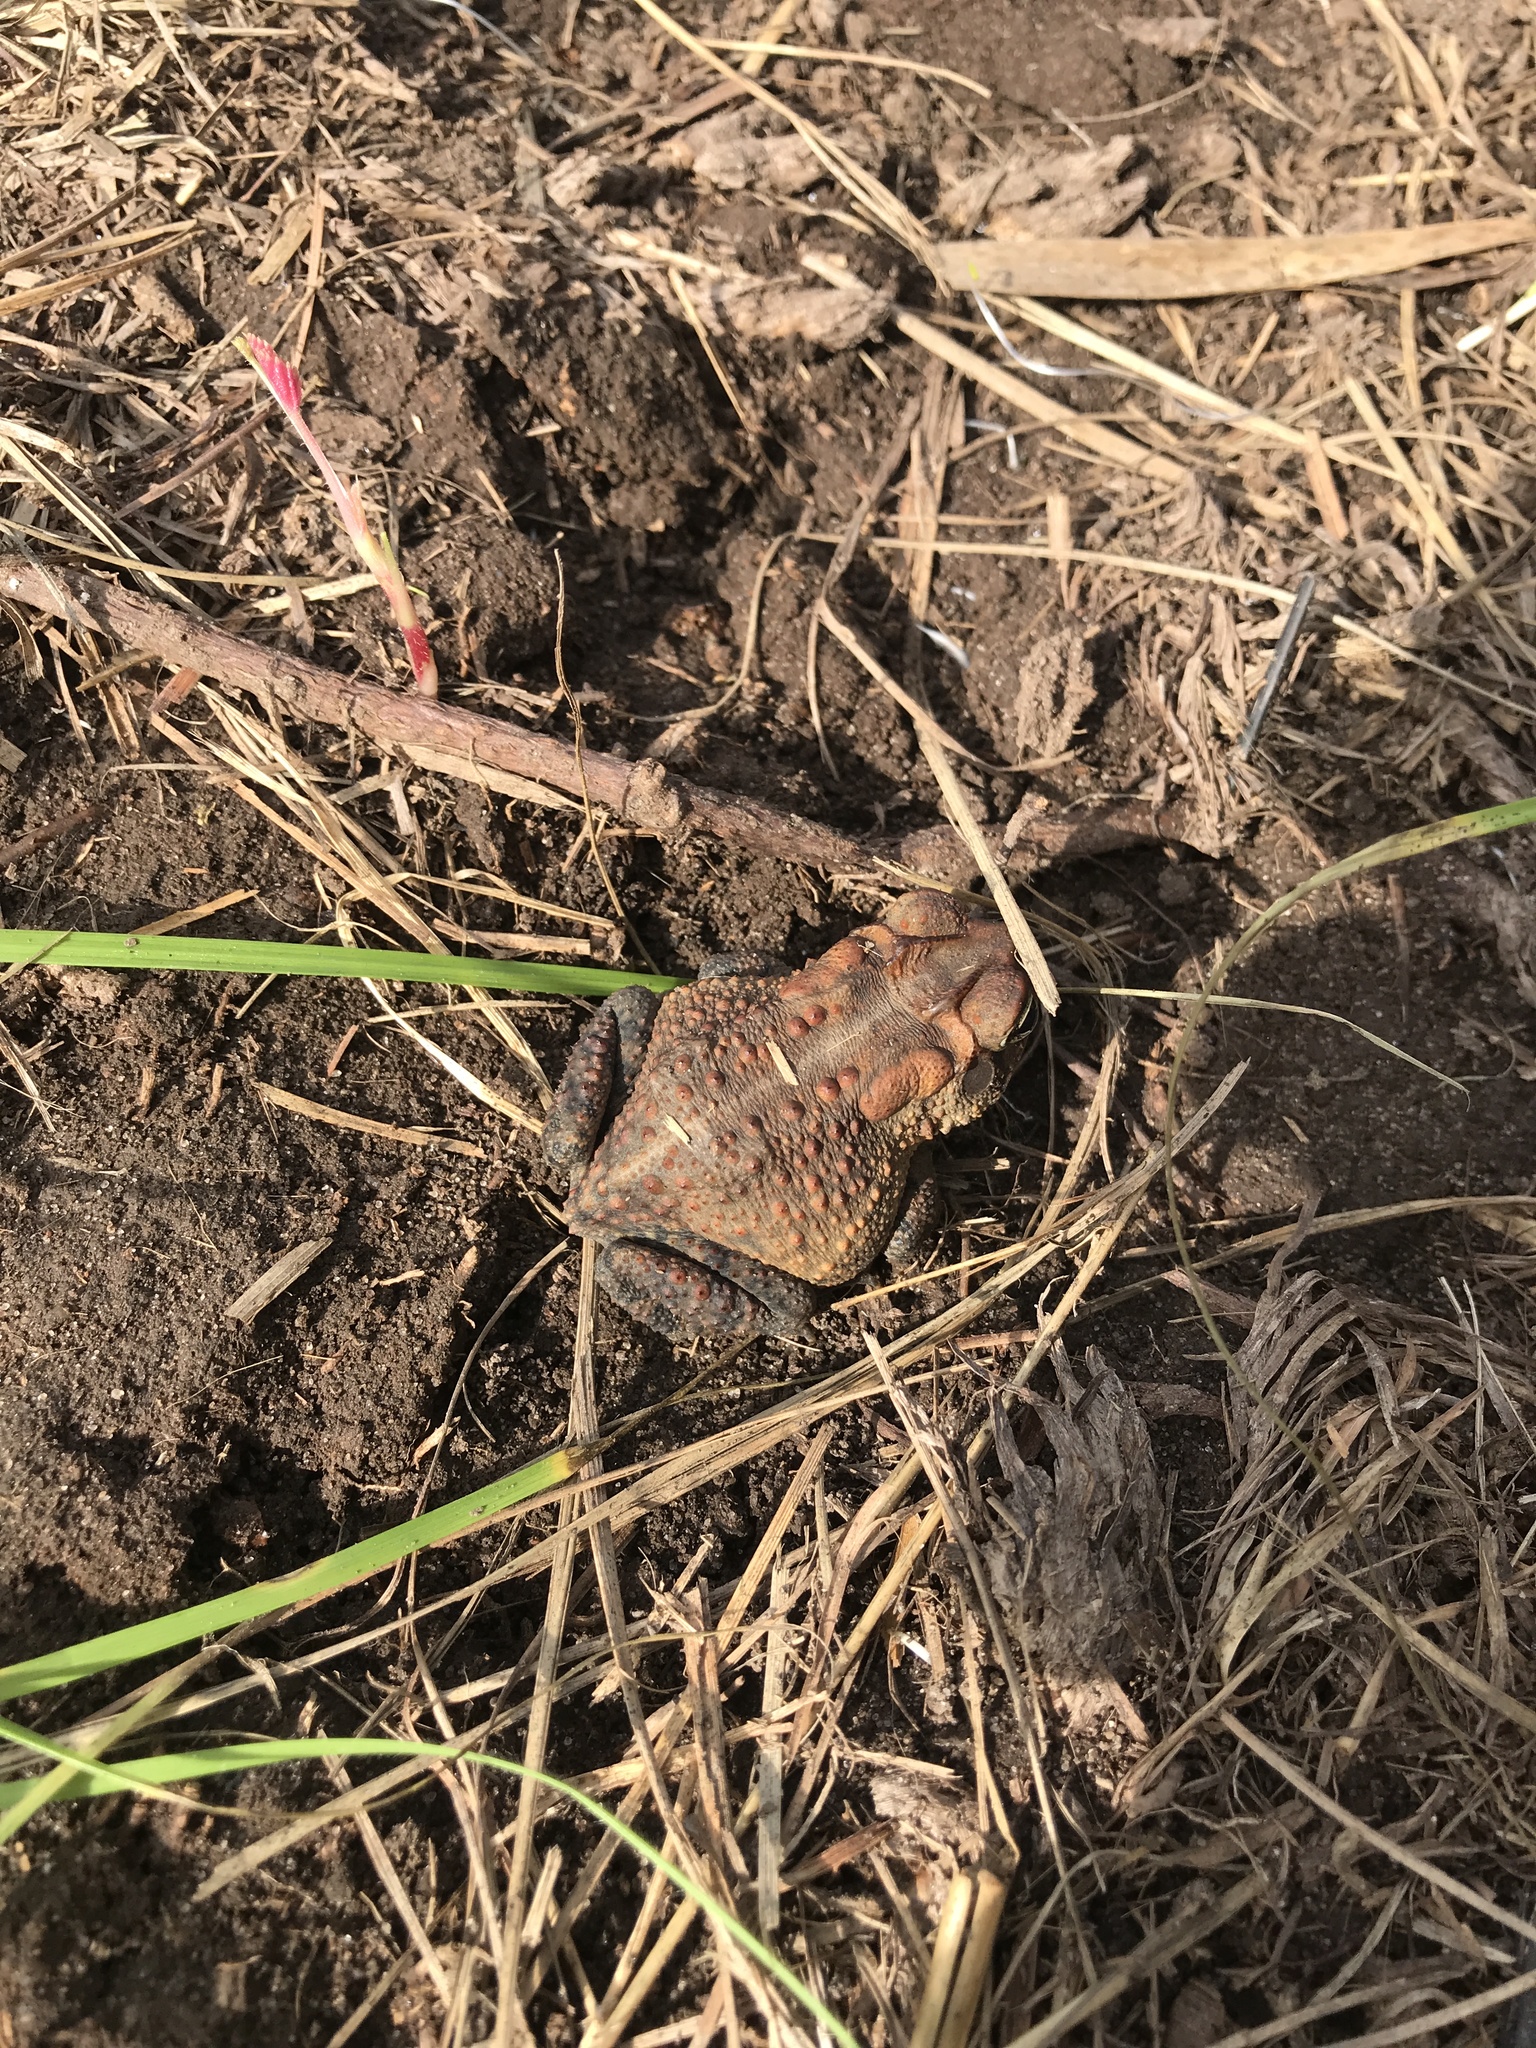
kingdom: Animalia
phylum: Chordata
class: Amphibia
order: Anura
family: Bufonidae
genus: Anaxyrus
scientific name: Anaxyrus terrestris
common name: Southern toad
